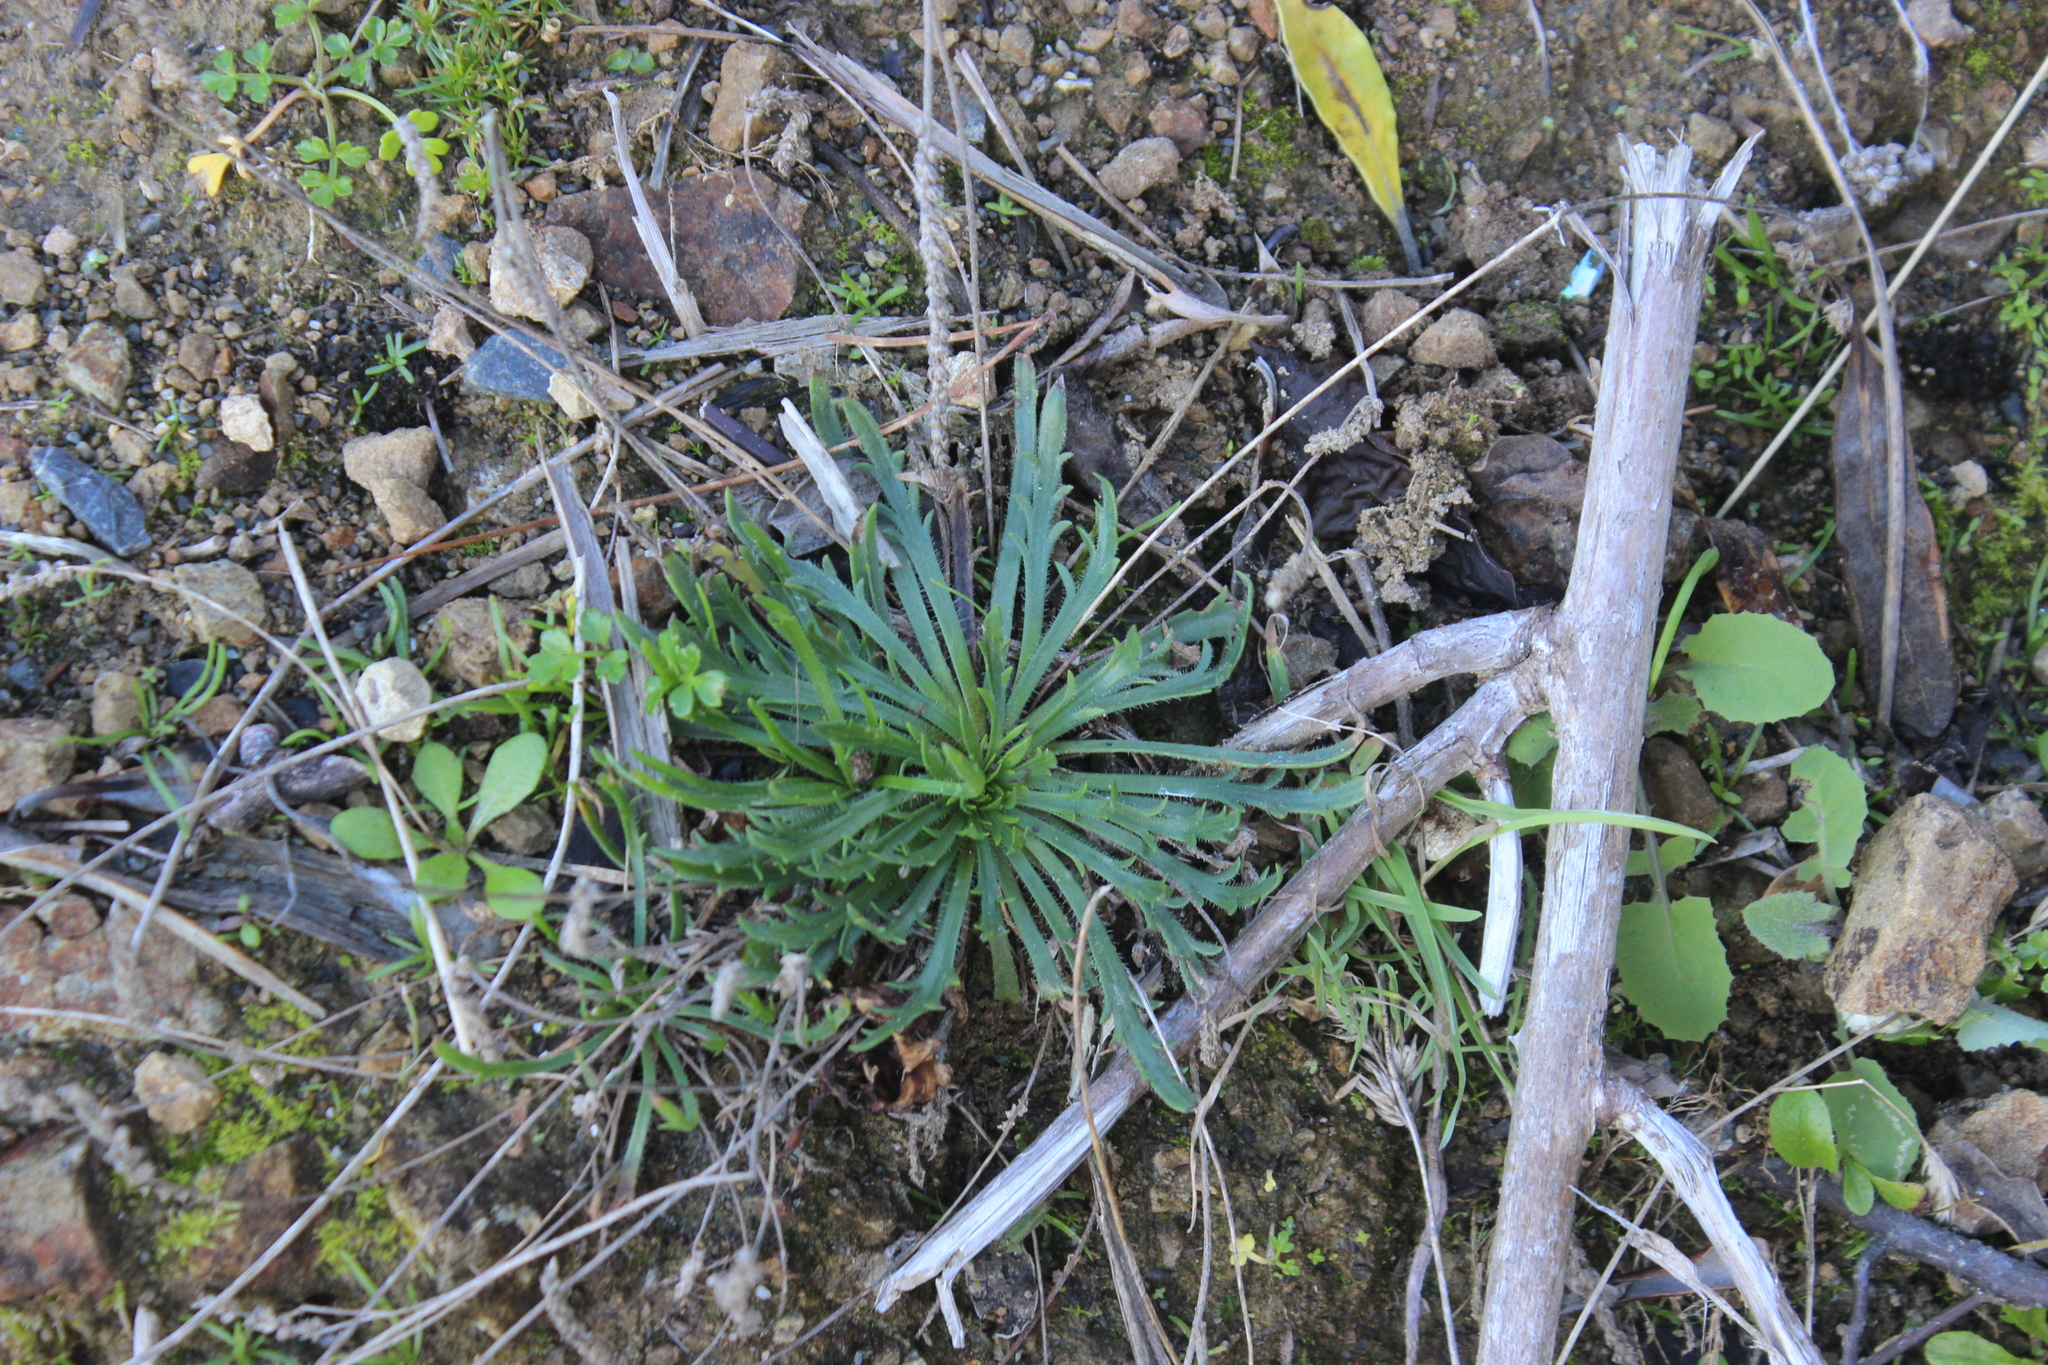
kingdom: Plantae
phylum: Tracheophyta
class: Magnoliopsida
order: Lamiales
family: Plantaginaceae
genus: Plantago
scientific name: Plantago coronopus
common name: Buck's-horn plantain
